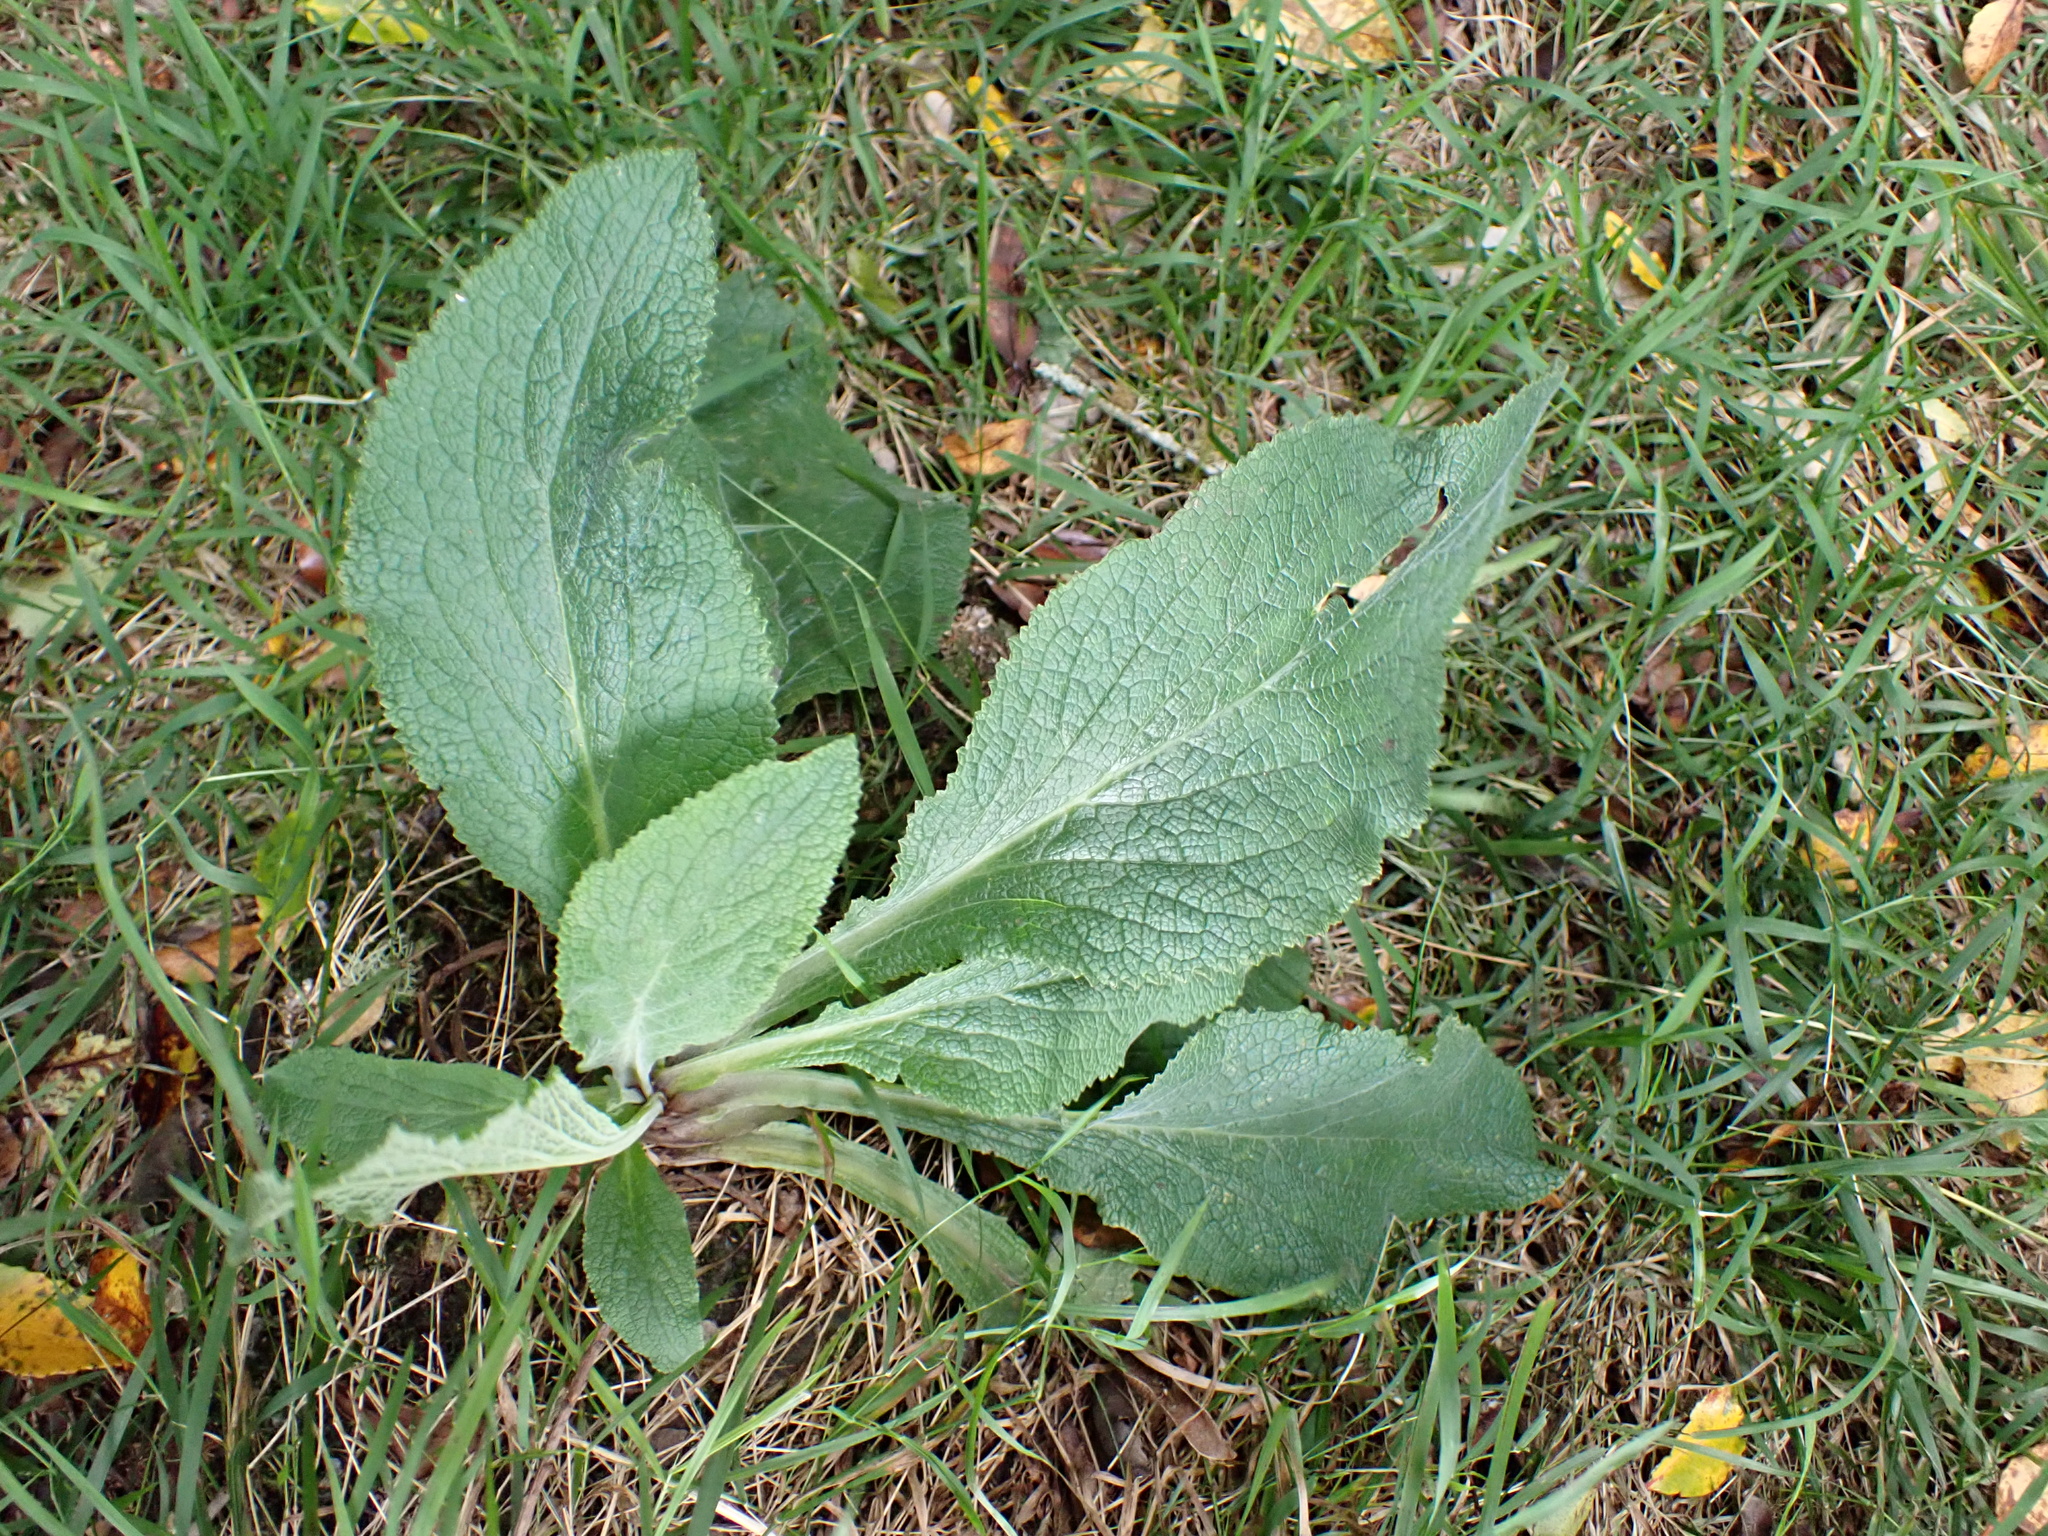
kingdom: Plantae
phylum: Tracheophyta
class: Magnoliopsida
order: Lamiales
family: Plantaginaceae
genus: Digitalis
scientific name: Digitalis purpurea
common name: Foxglove
